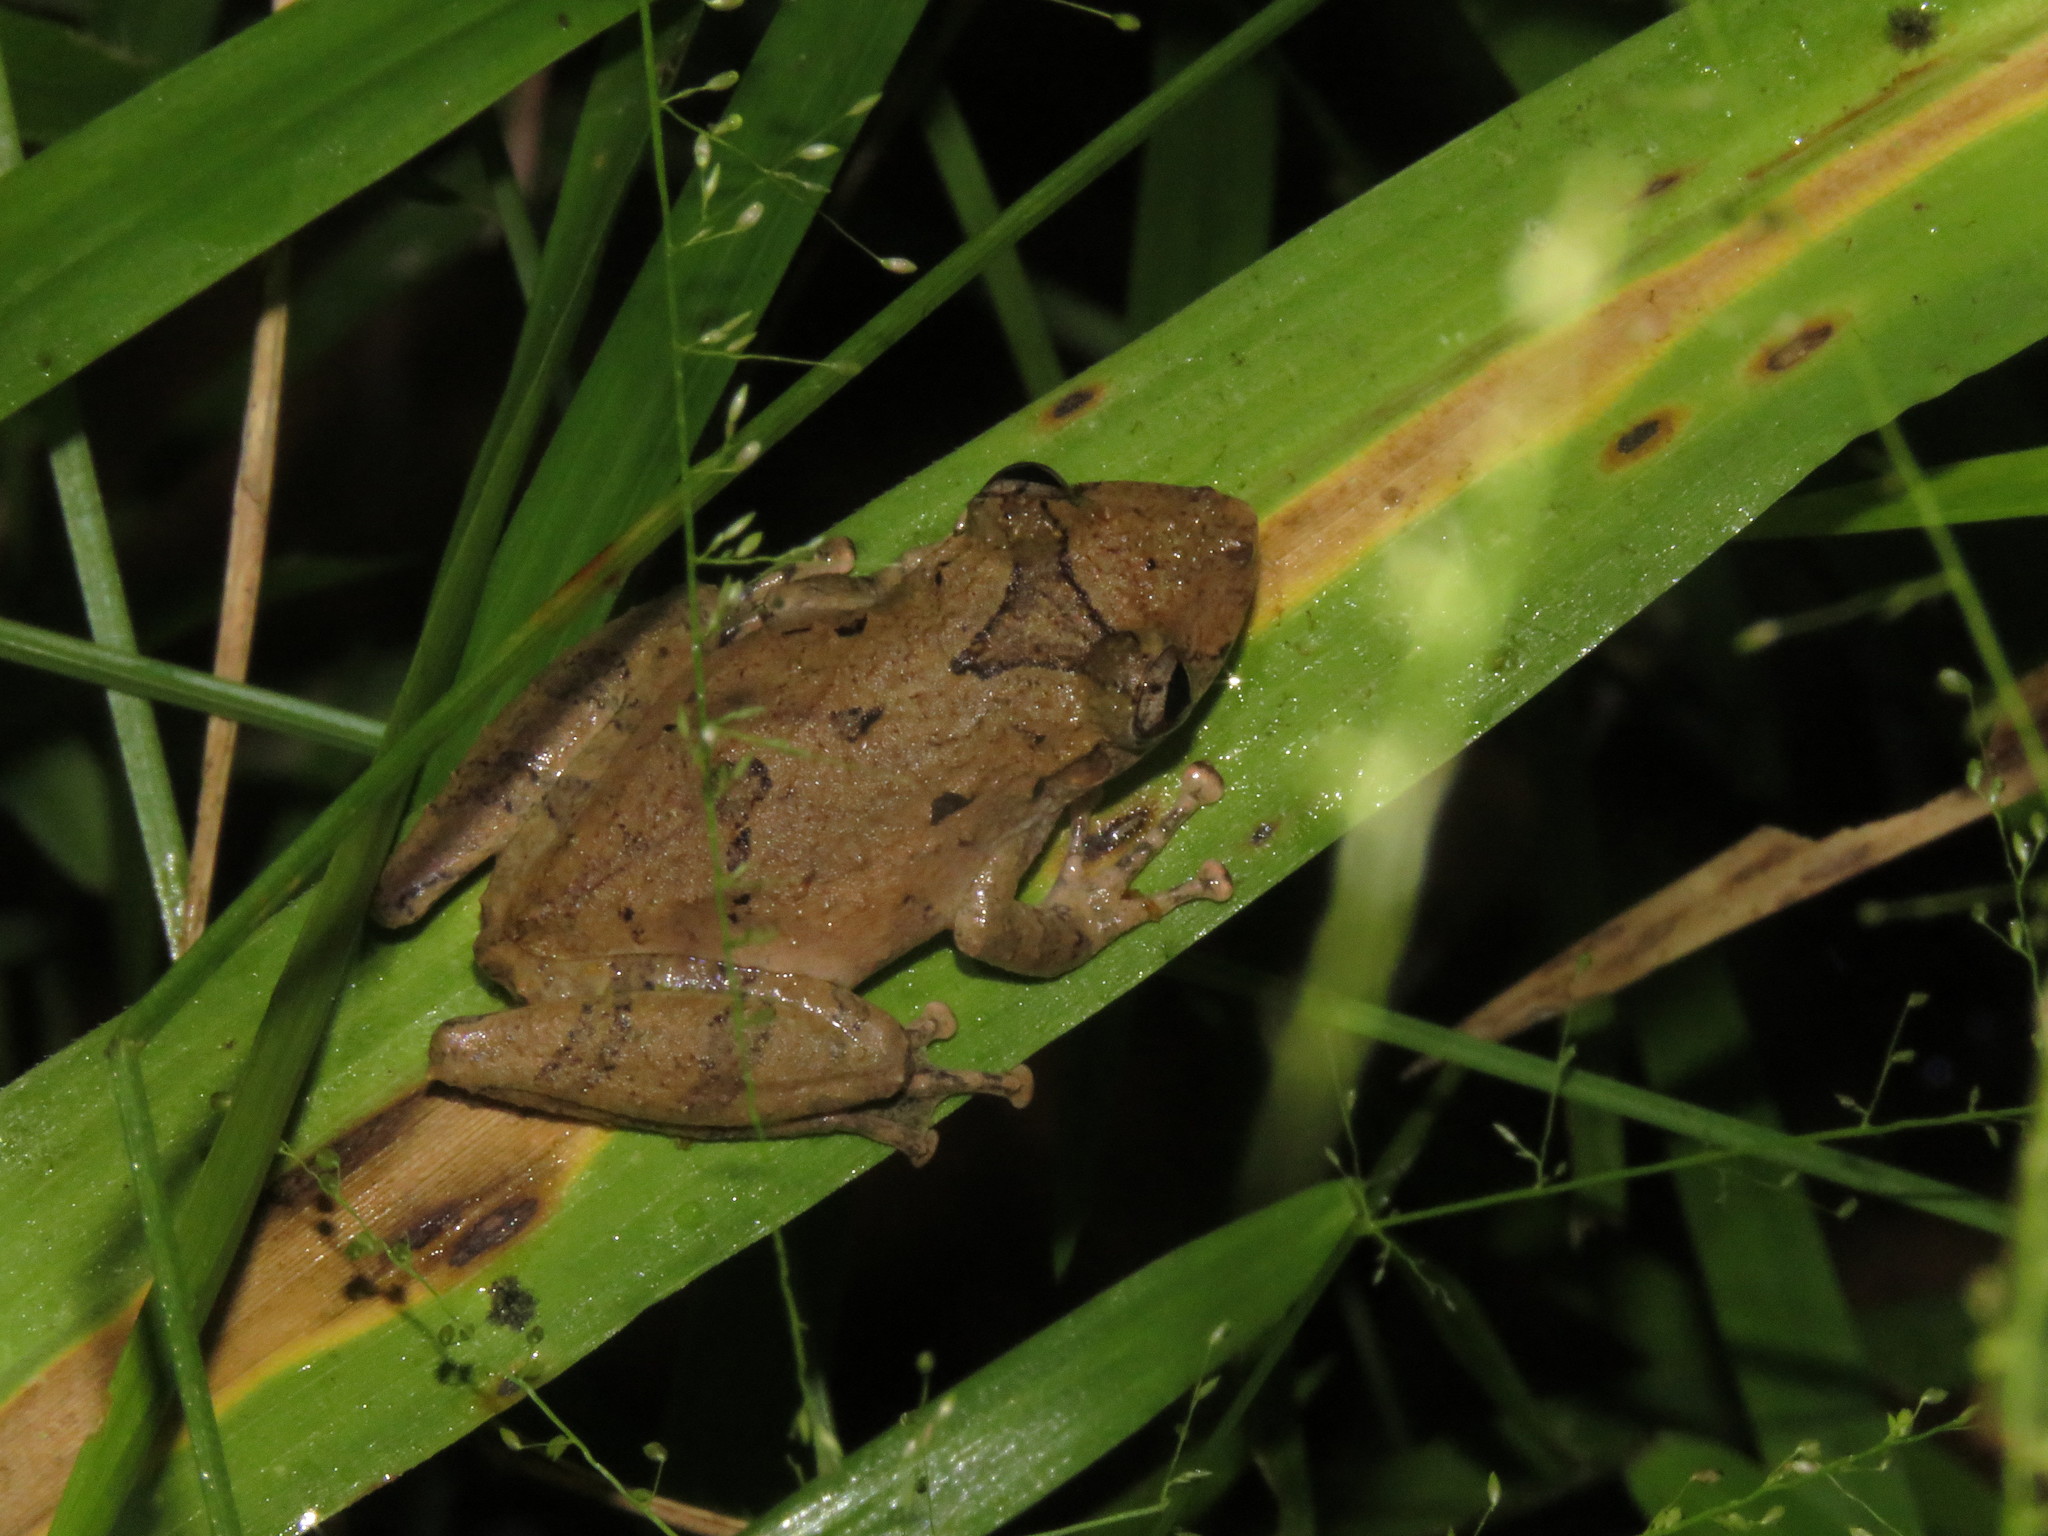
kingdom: Animalia
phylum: Chordata
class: Amphibia
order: Anura
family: Hylidae
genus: Scinax
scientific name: Scinax nebulosus
